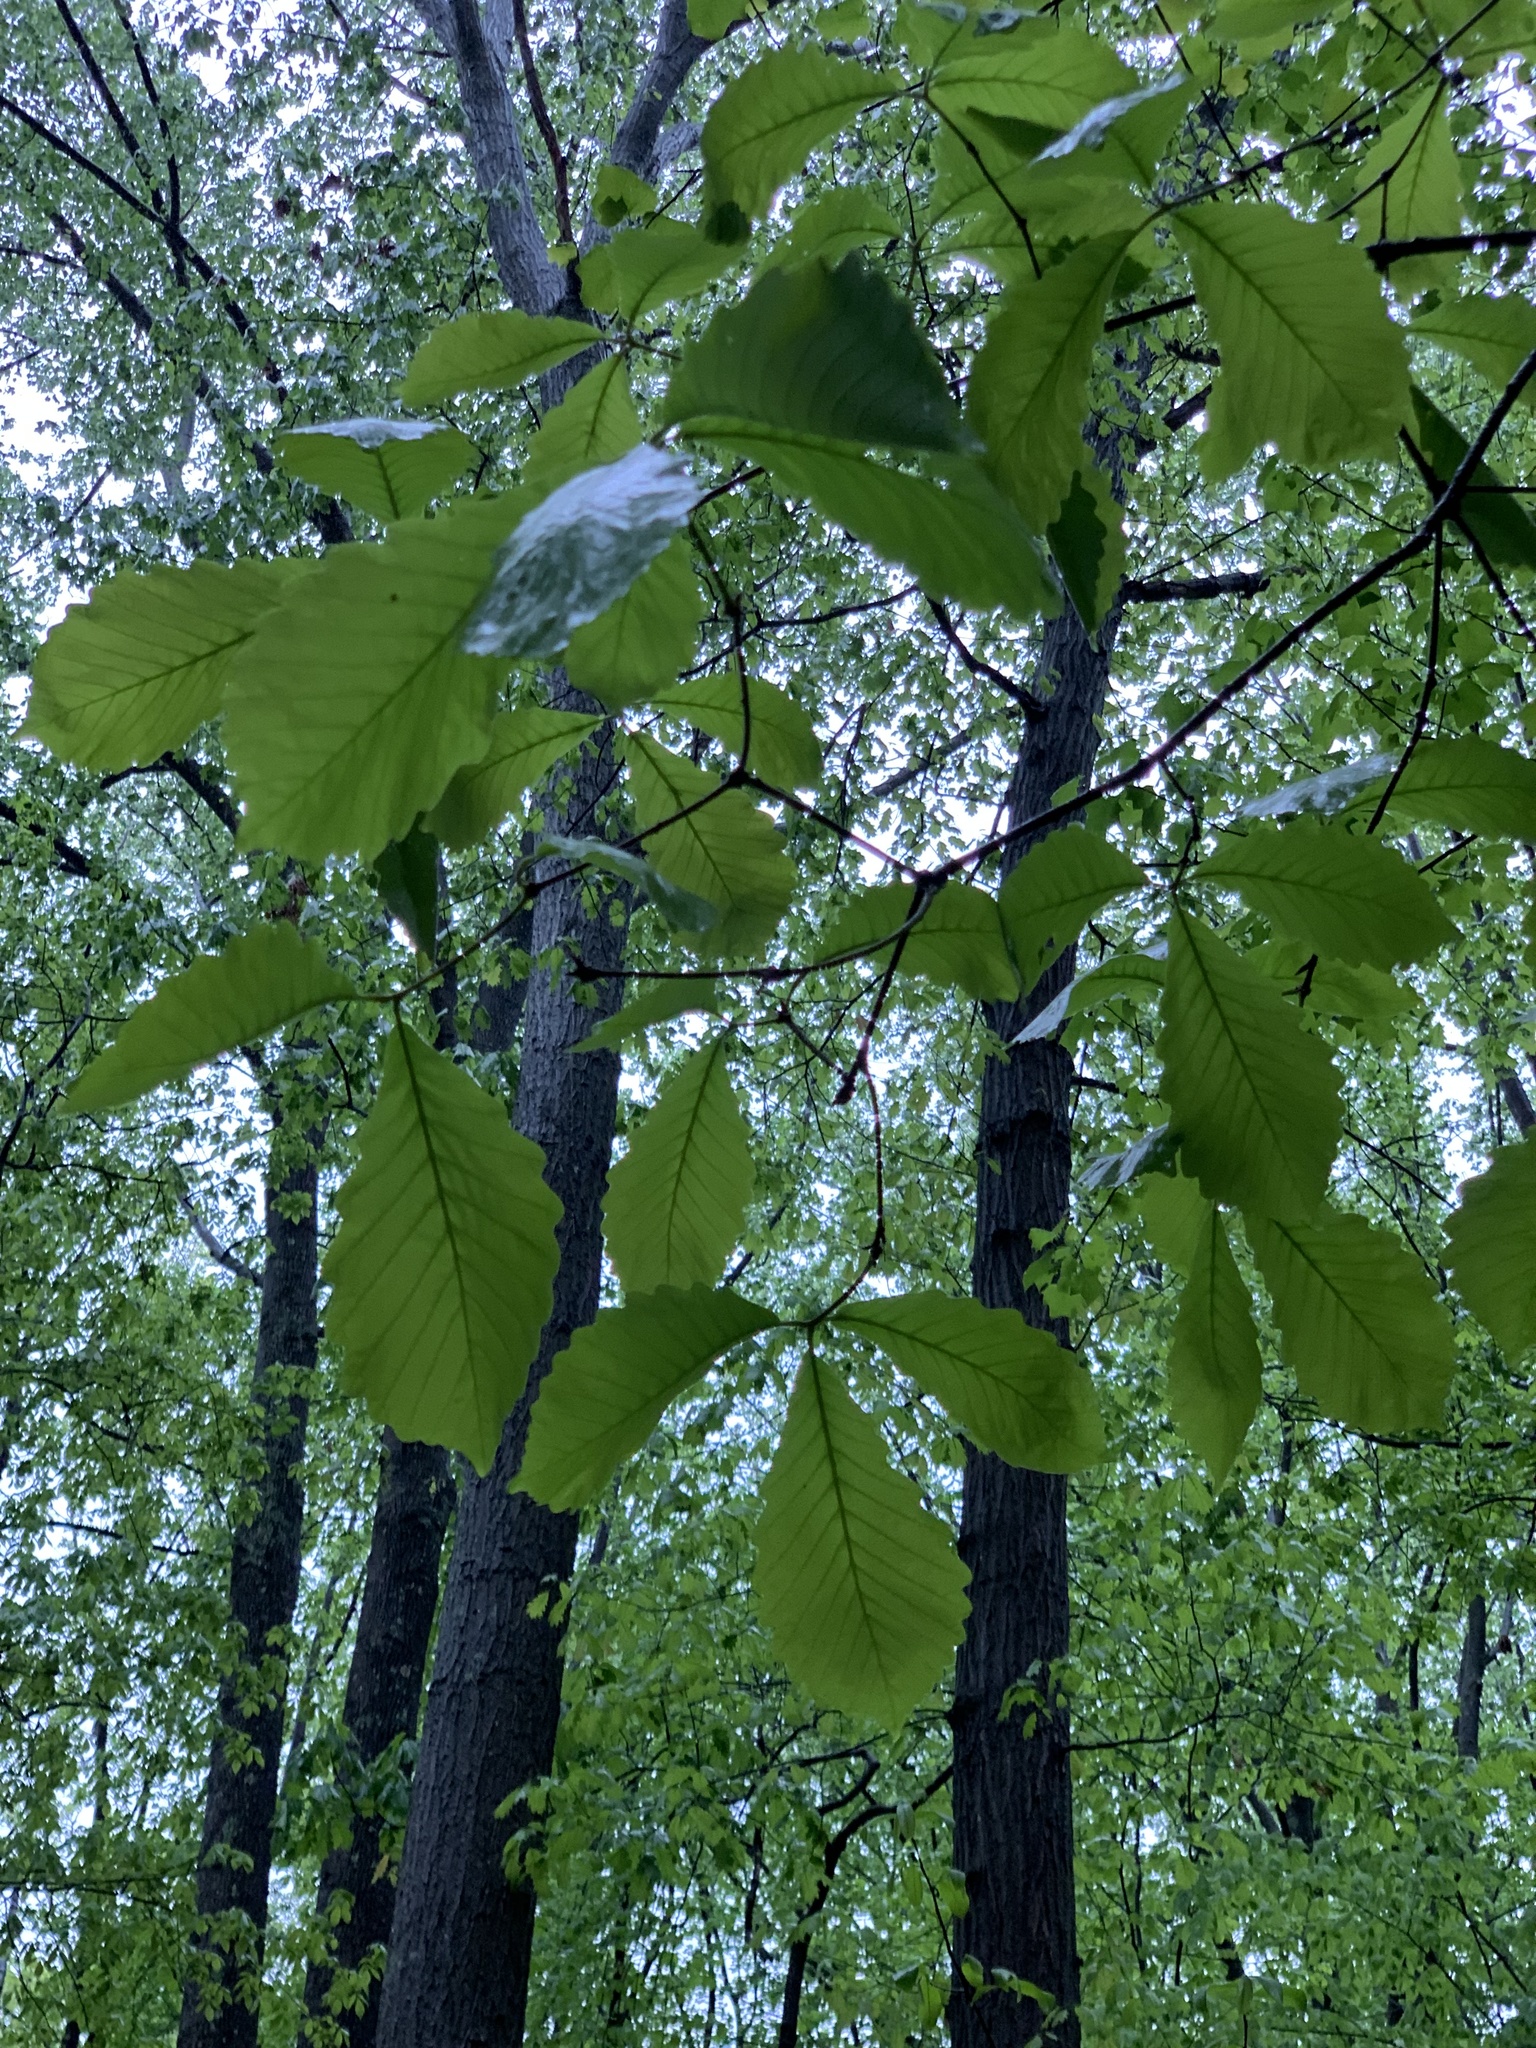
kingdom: Plantae
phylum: Tracheophyta
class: Magnoliopsida
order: Fagales
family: Fagaceae
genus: Quercus
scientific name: Quercus montana
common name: Chestnut oak
